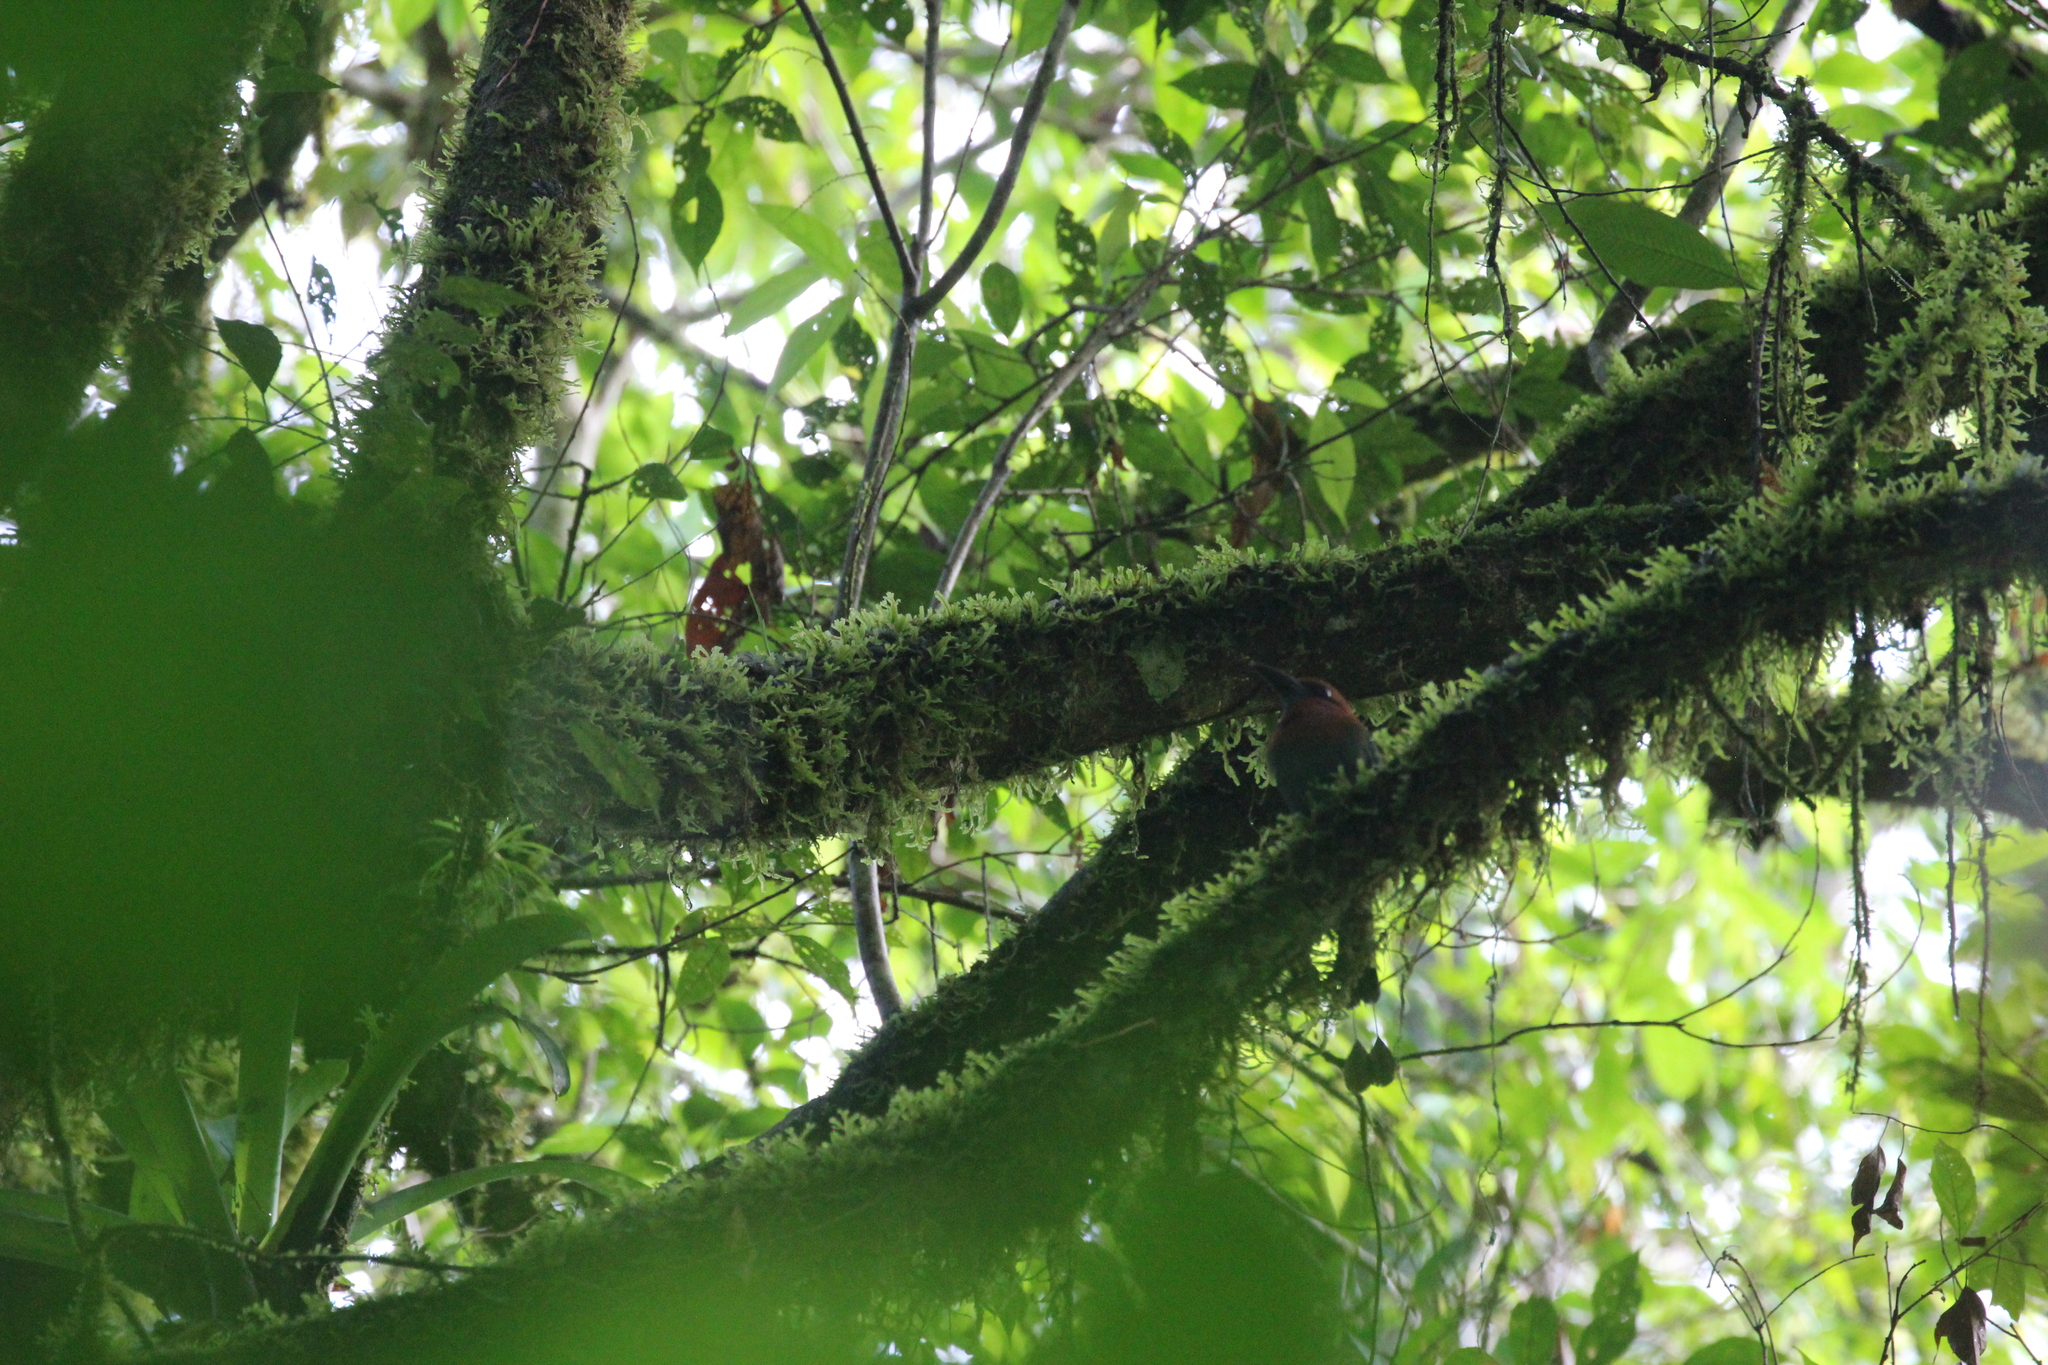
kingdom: Animalia
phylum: Chordata
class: Aves
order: Coraciiformes
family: Momotidae
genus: Electron
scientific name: Electron platyrhynchum
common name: Broad-billed motmot
